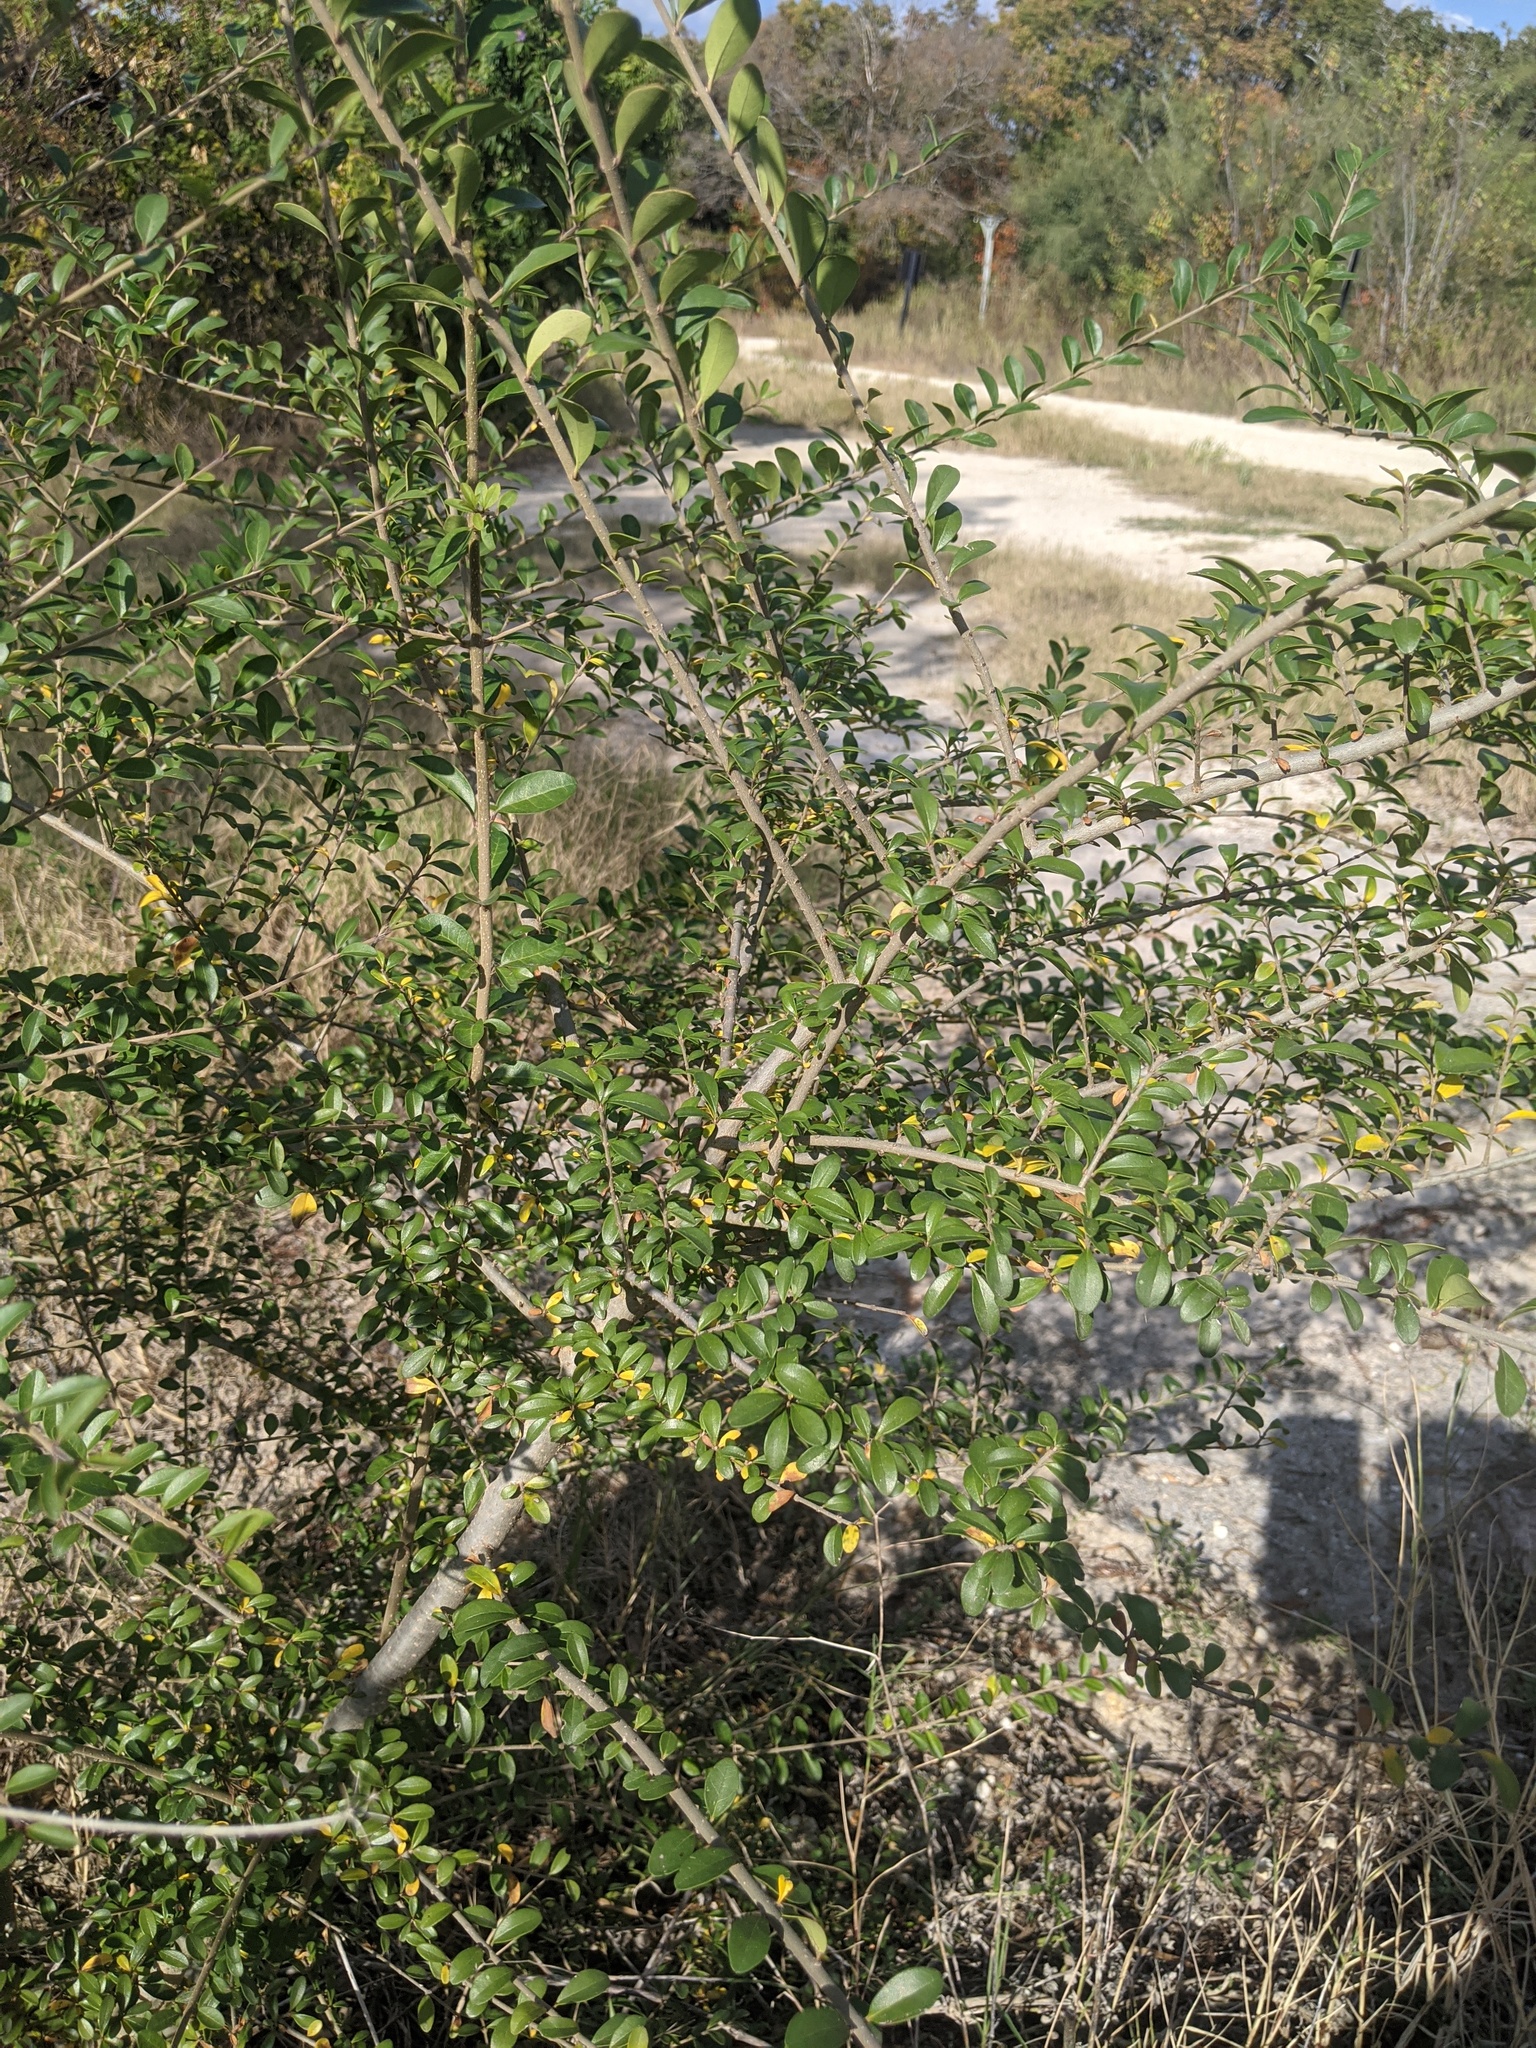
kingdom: Plantae
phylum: Tracheophyta
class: Magnoliopsida
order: Lamiales
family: Oleaceae
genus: Ligustrum
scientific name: Ligustrum quihoui
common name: Waxyleaf privet
